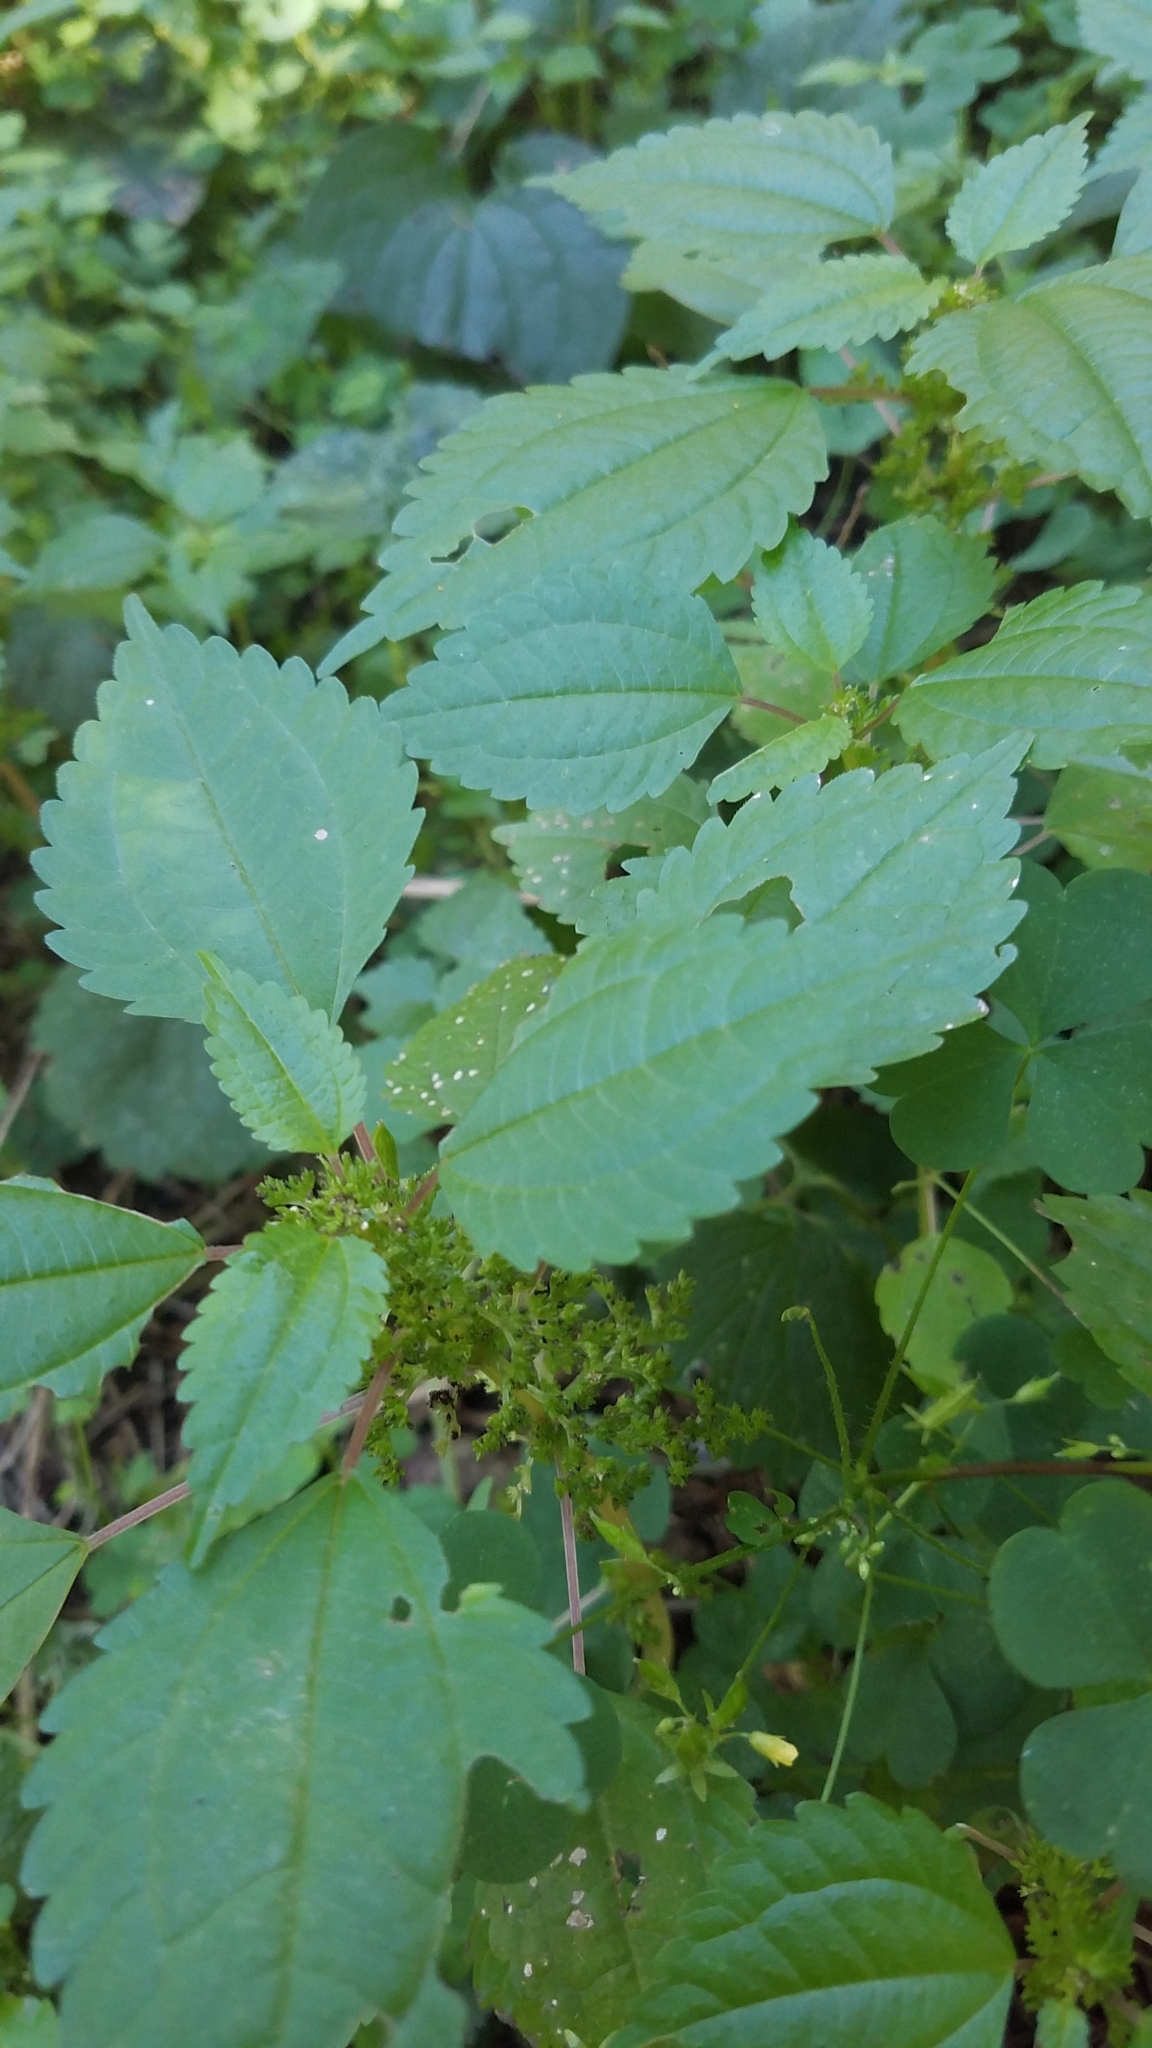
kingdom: Plantae
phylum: Tracheophyta
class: Magnoliopsida
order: Rosales
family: Urticaceae
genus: Pilea
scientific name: Pilea pumila
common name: Clearweed
